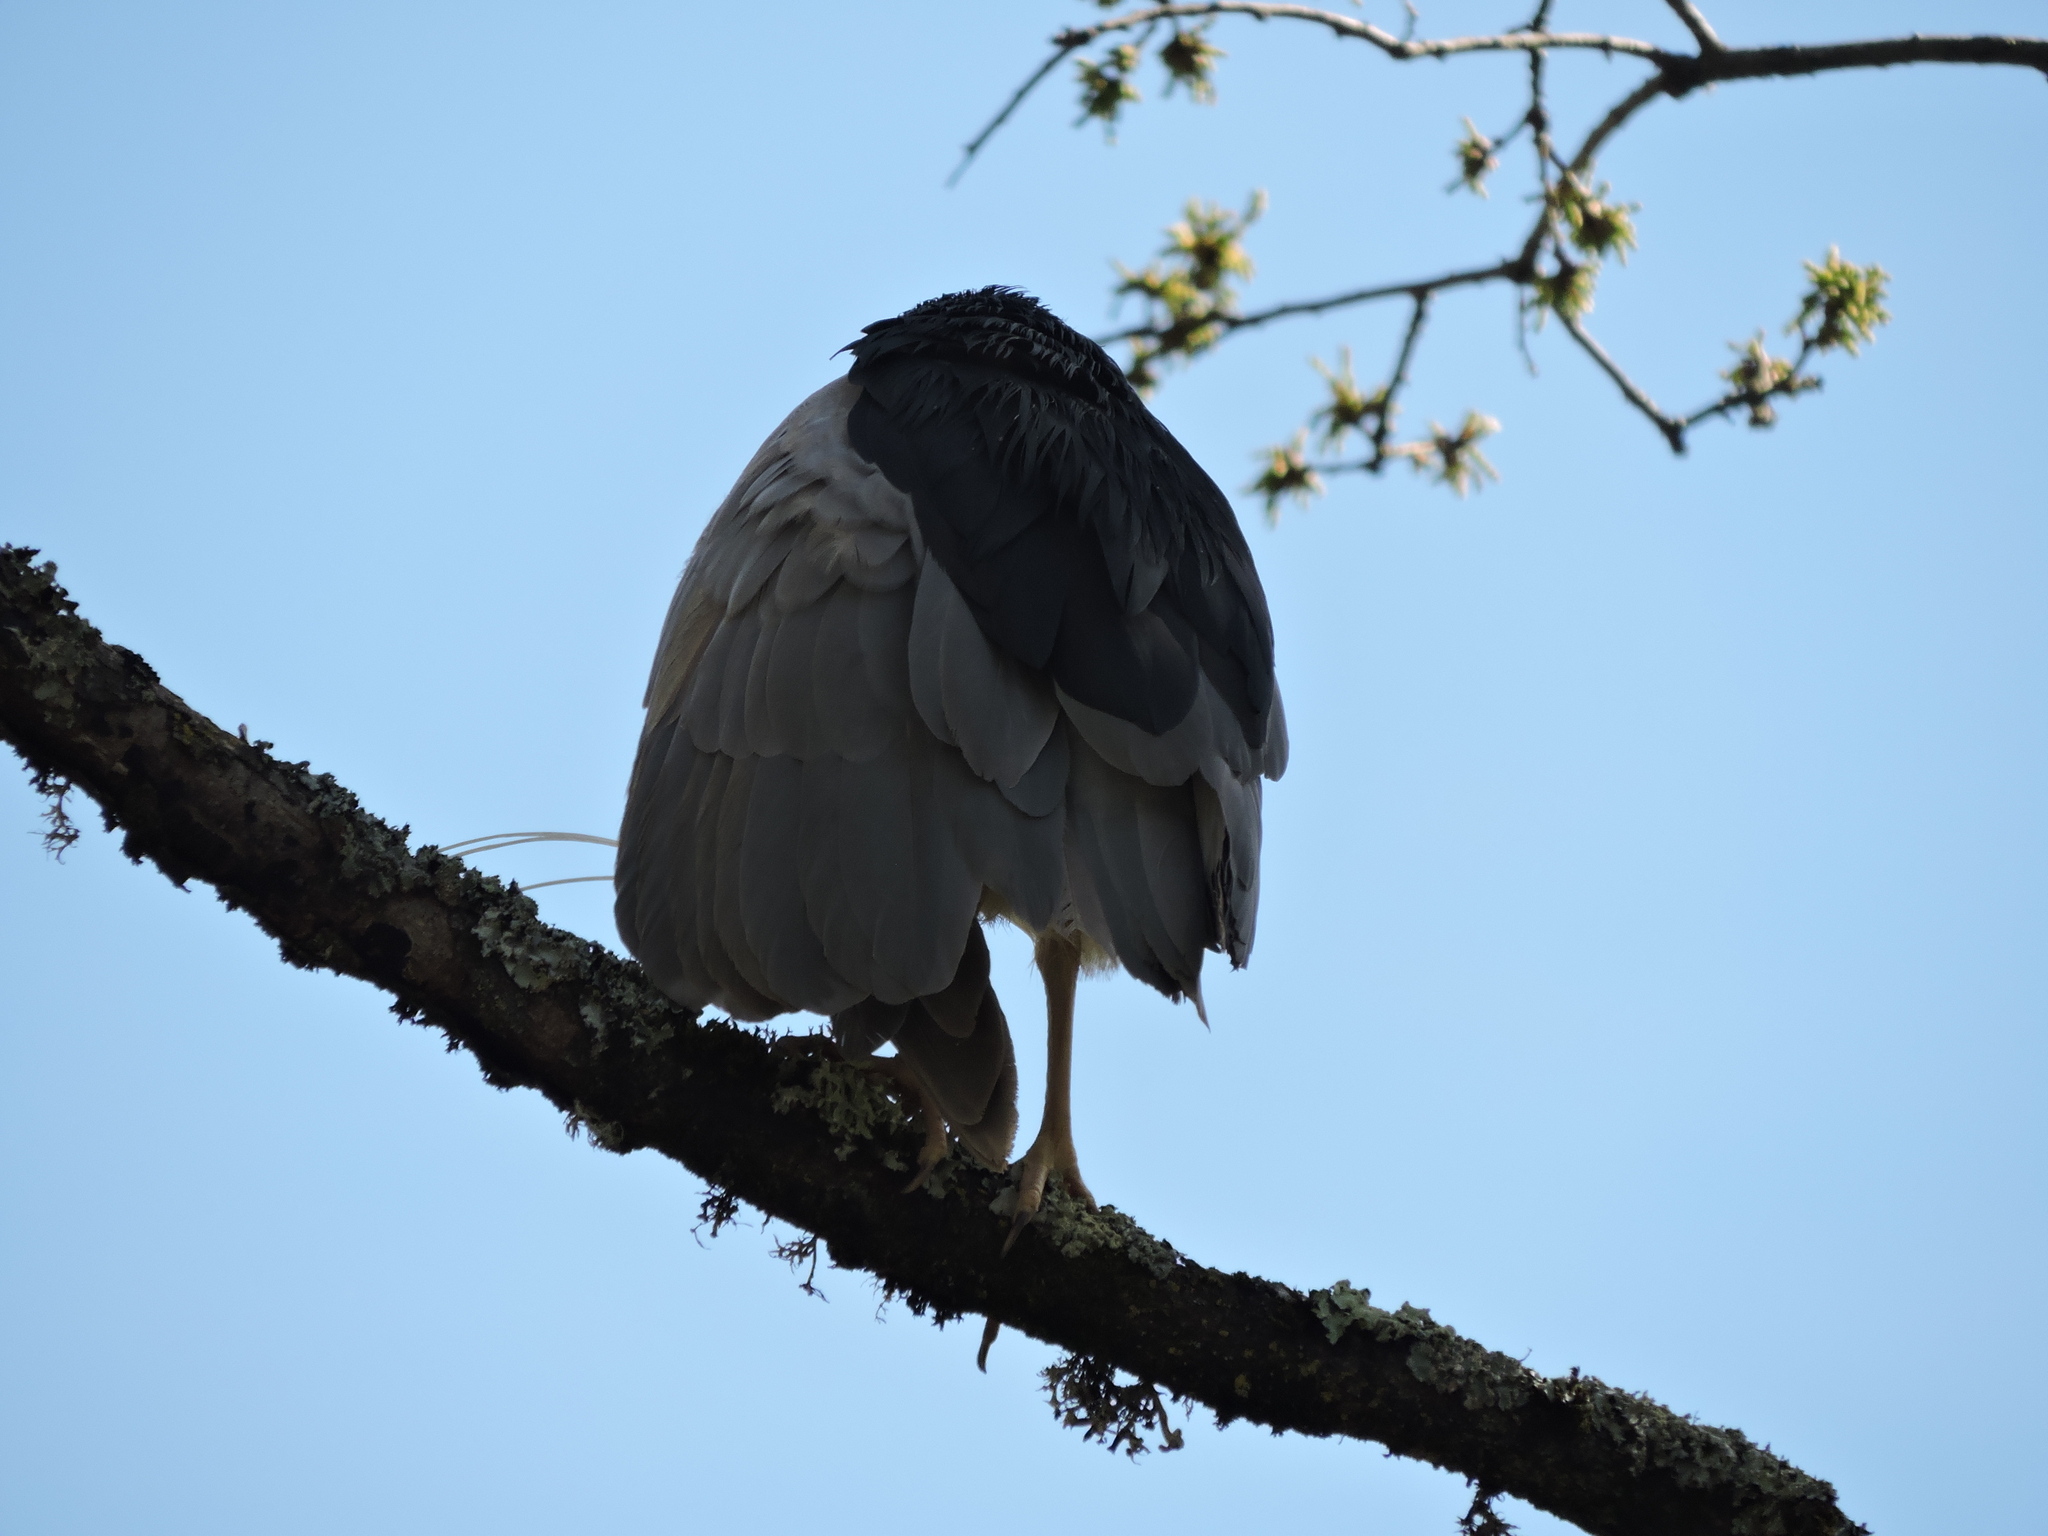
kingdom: Animalia
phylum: Chordata
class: Aves
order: Pelecaniformes
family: Ardeidae
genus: Nycticorax
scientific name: Nycticorax nycticorax
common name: Black-crowned night heron
